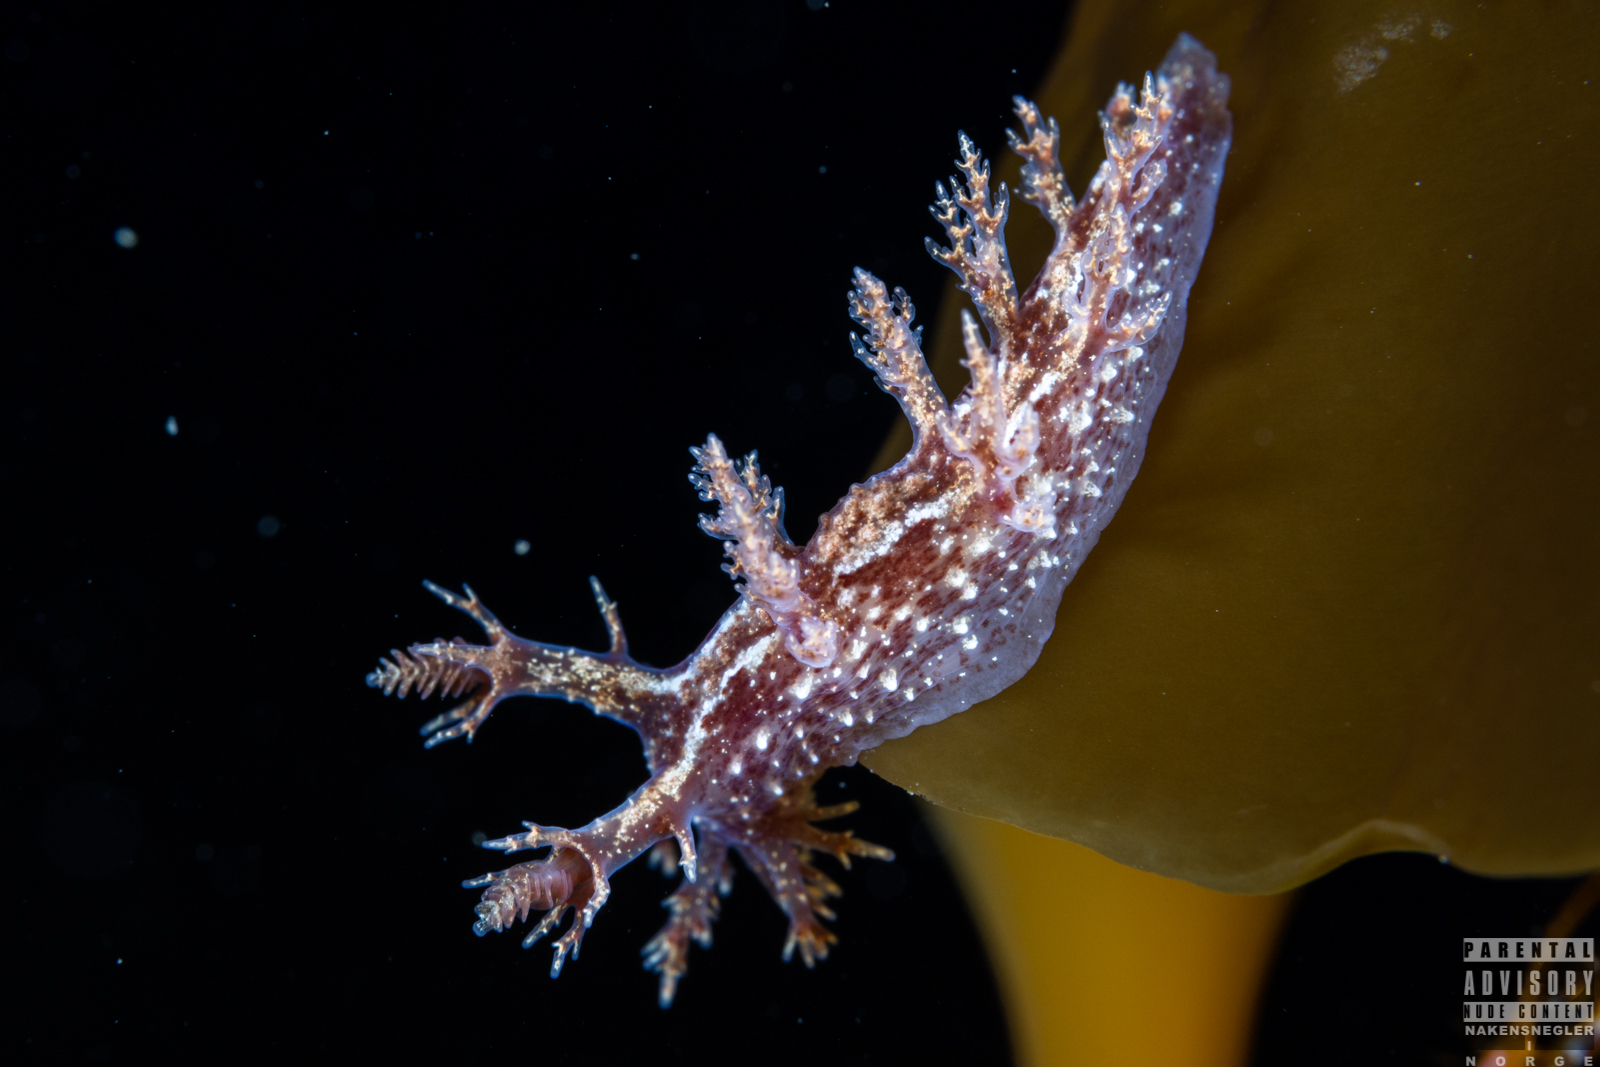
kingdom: Animalia
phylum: Mollusca
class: Gastropoda
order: Nudibranchia
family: Dendronotidae
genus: Dendronotus
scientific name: Dendronotus frondosus
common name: Bushy-backed nudibranch
